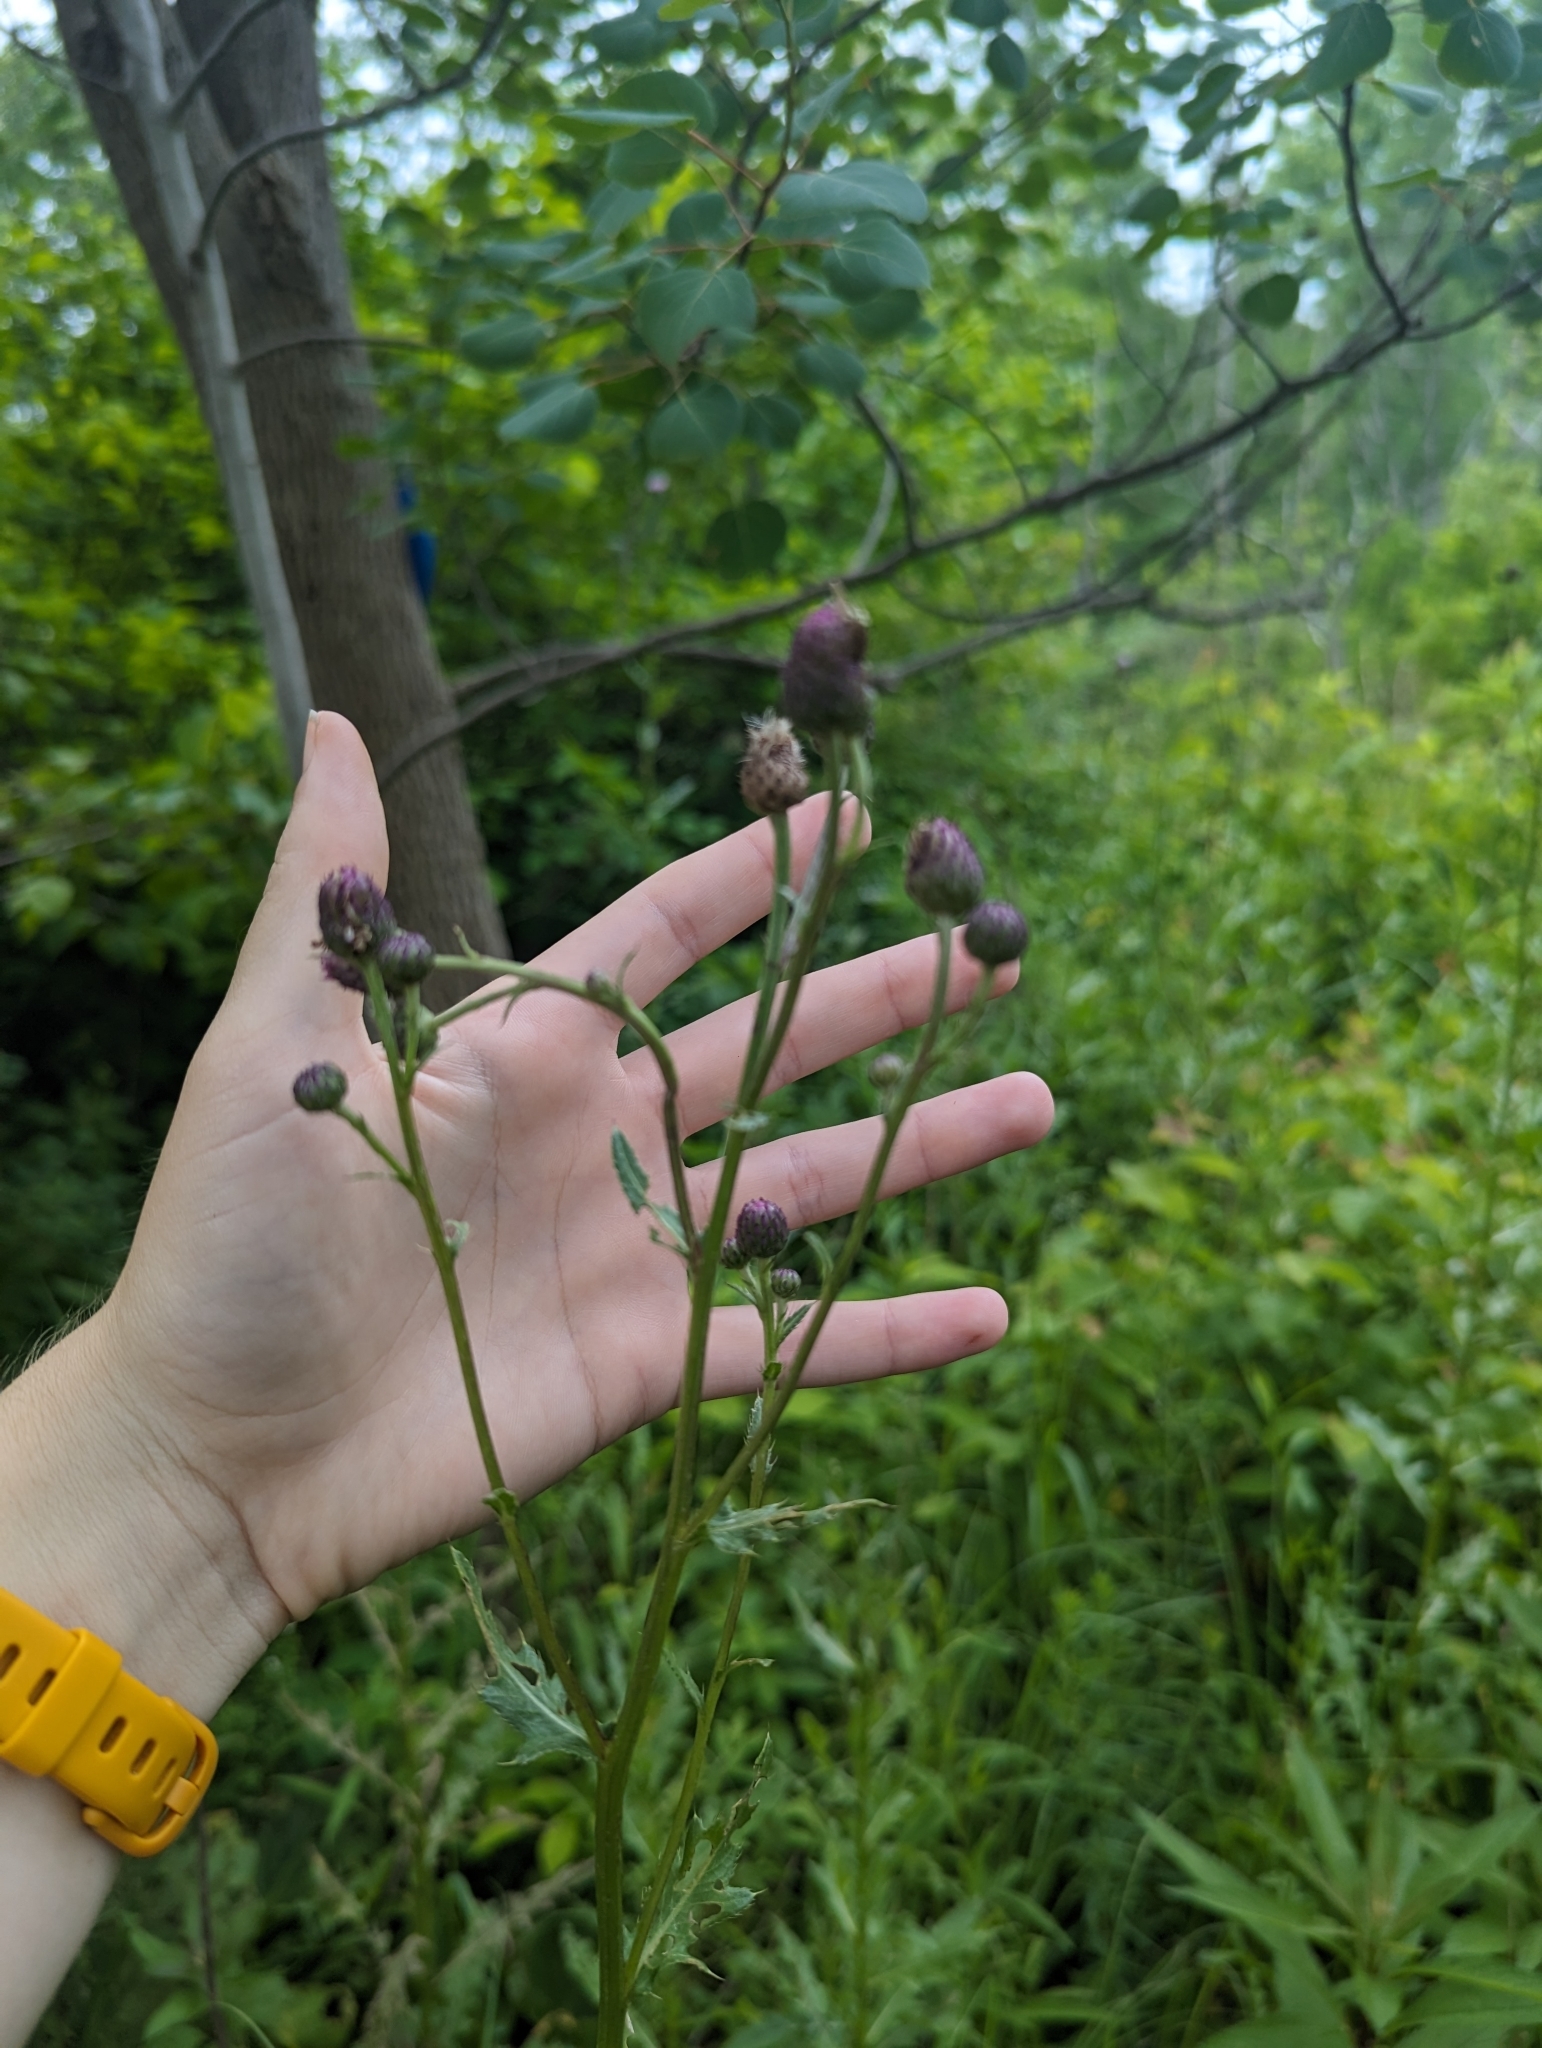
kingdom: Plantae
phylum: Tracheophyta
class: Magnoliopsida
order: Asterales
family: Asteraceae
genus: Cirsium
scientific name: Cirsium arvense
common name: Creeping thistle
